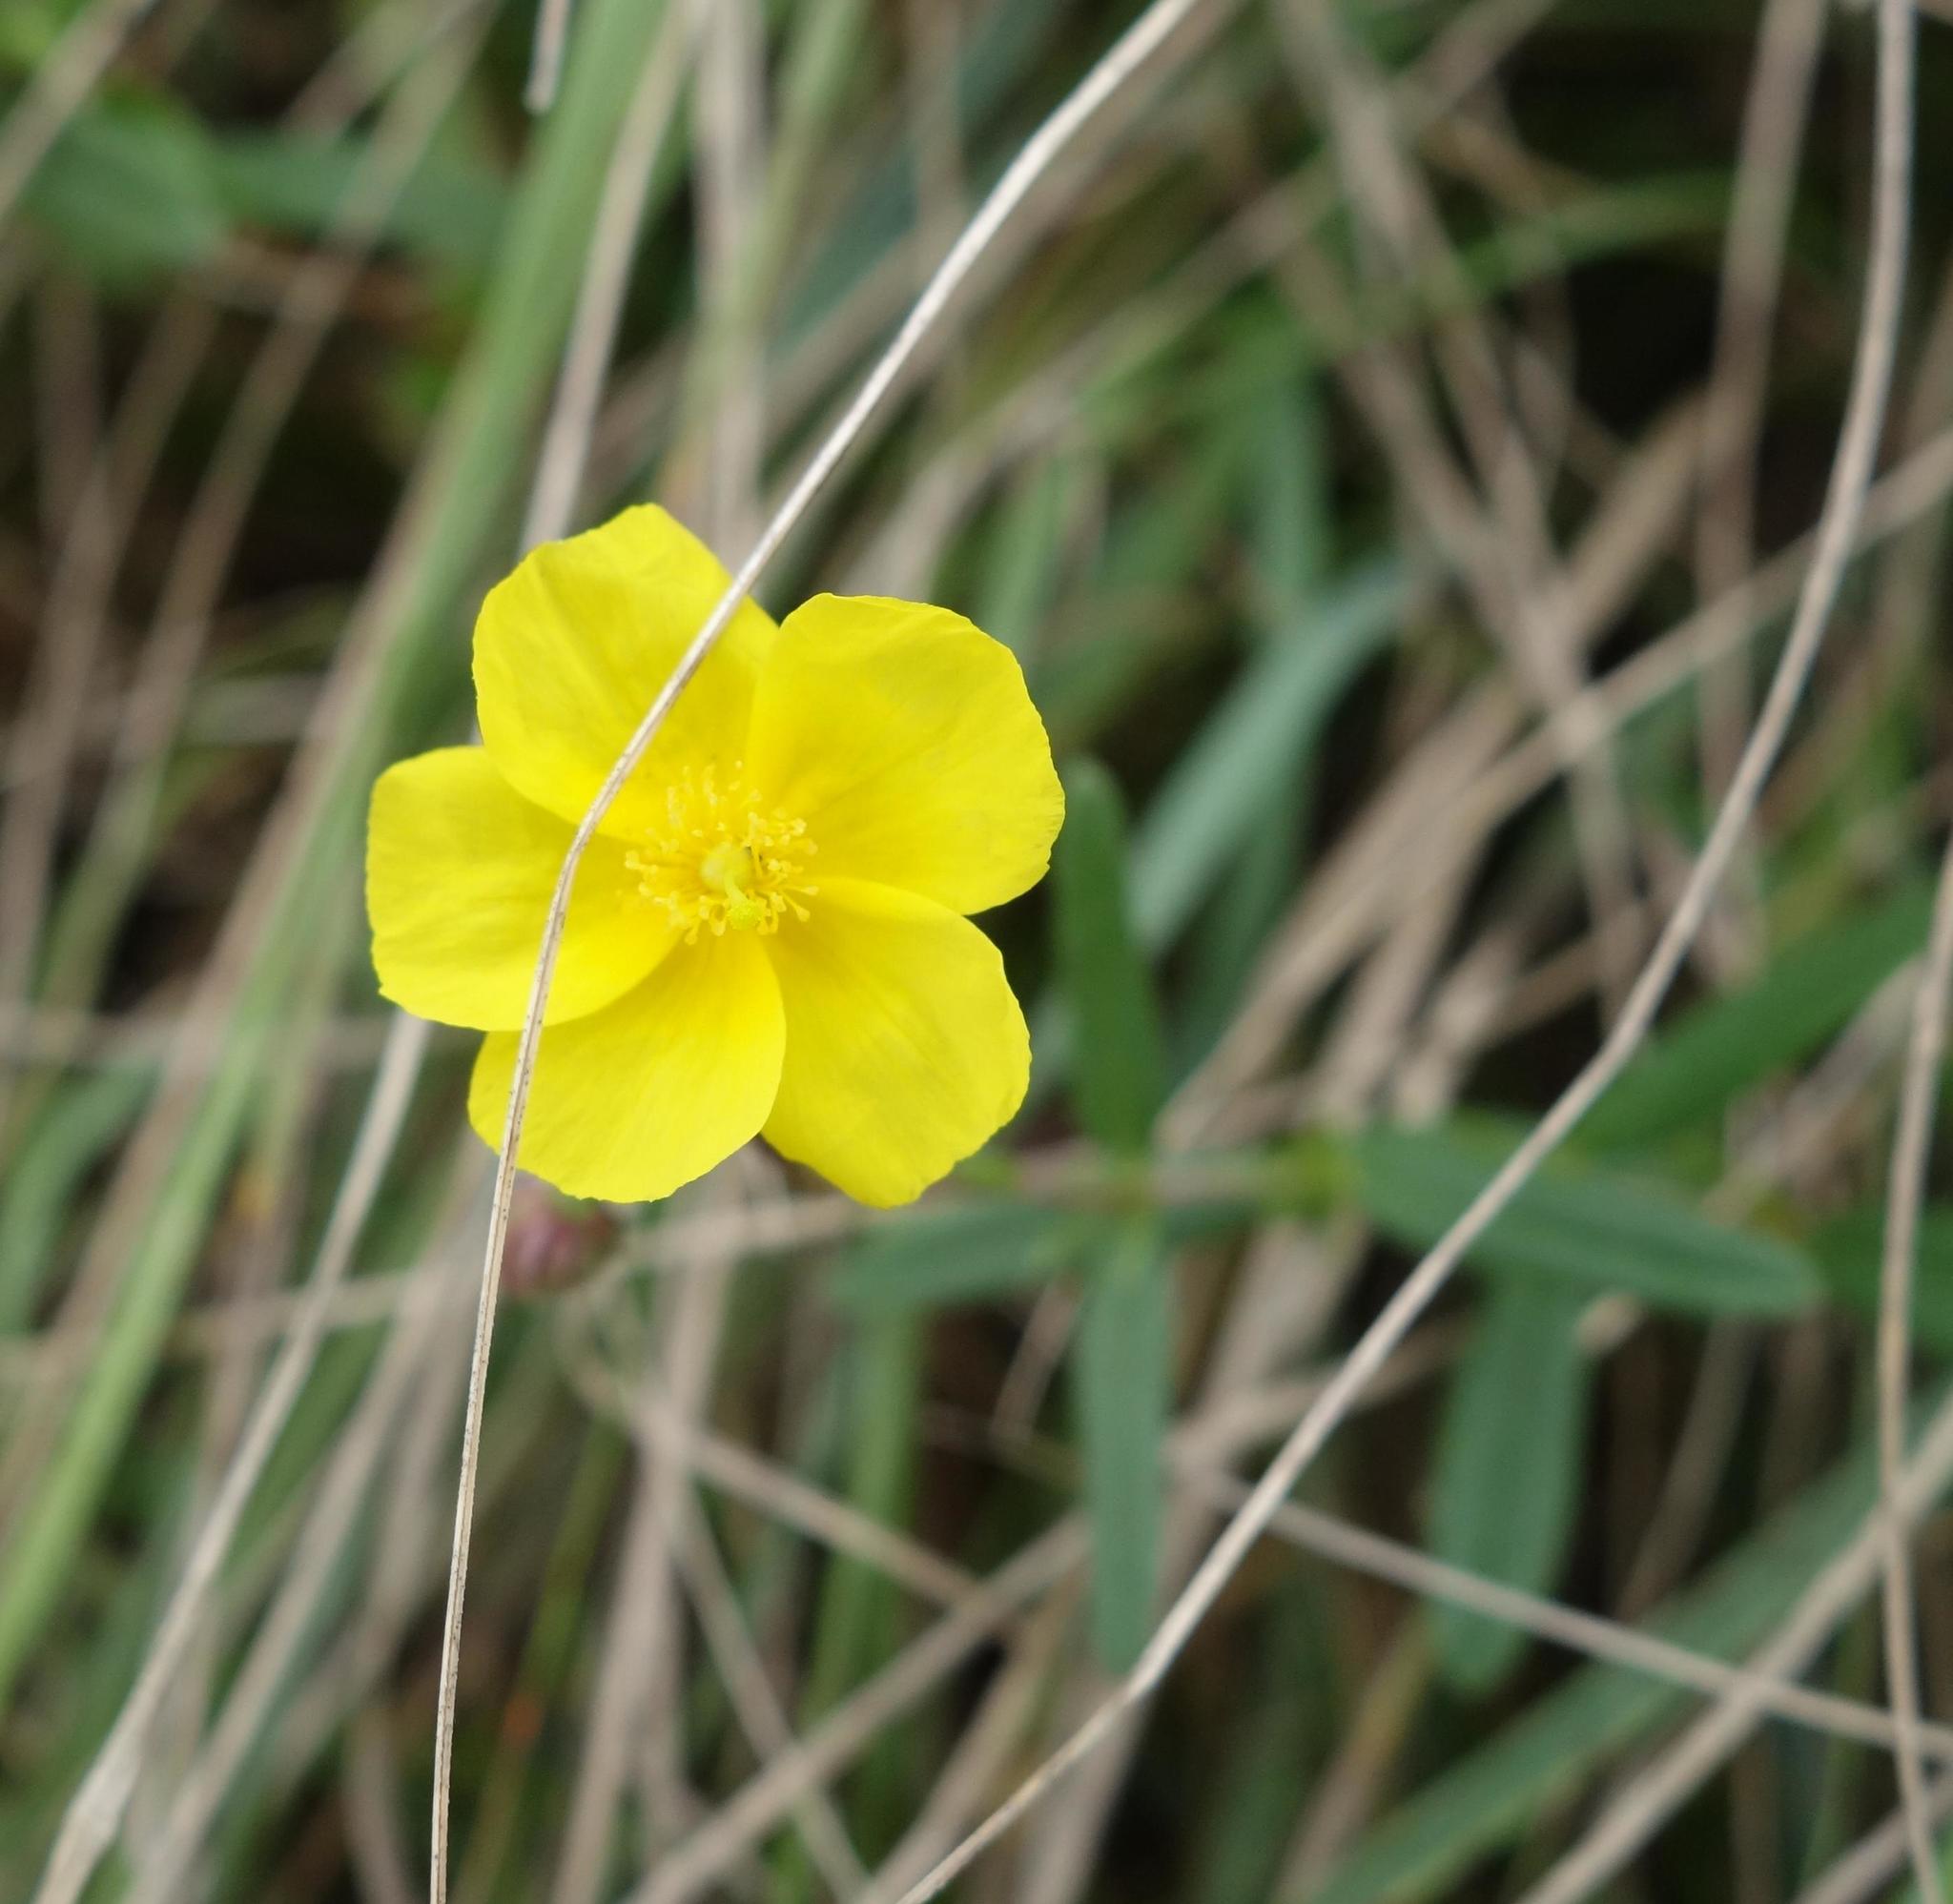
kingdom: Plantae
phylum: Tracheophyta
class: Magnoliopsida
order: Malvales
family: Cistaceae
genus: Helianthemum
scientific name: Helianthemum nummularium
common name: Common rock-rose
